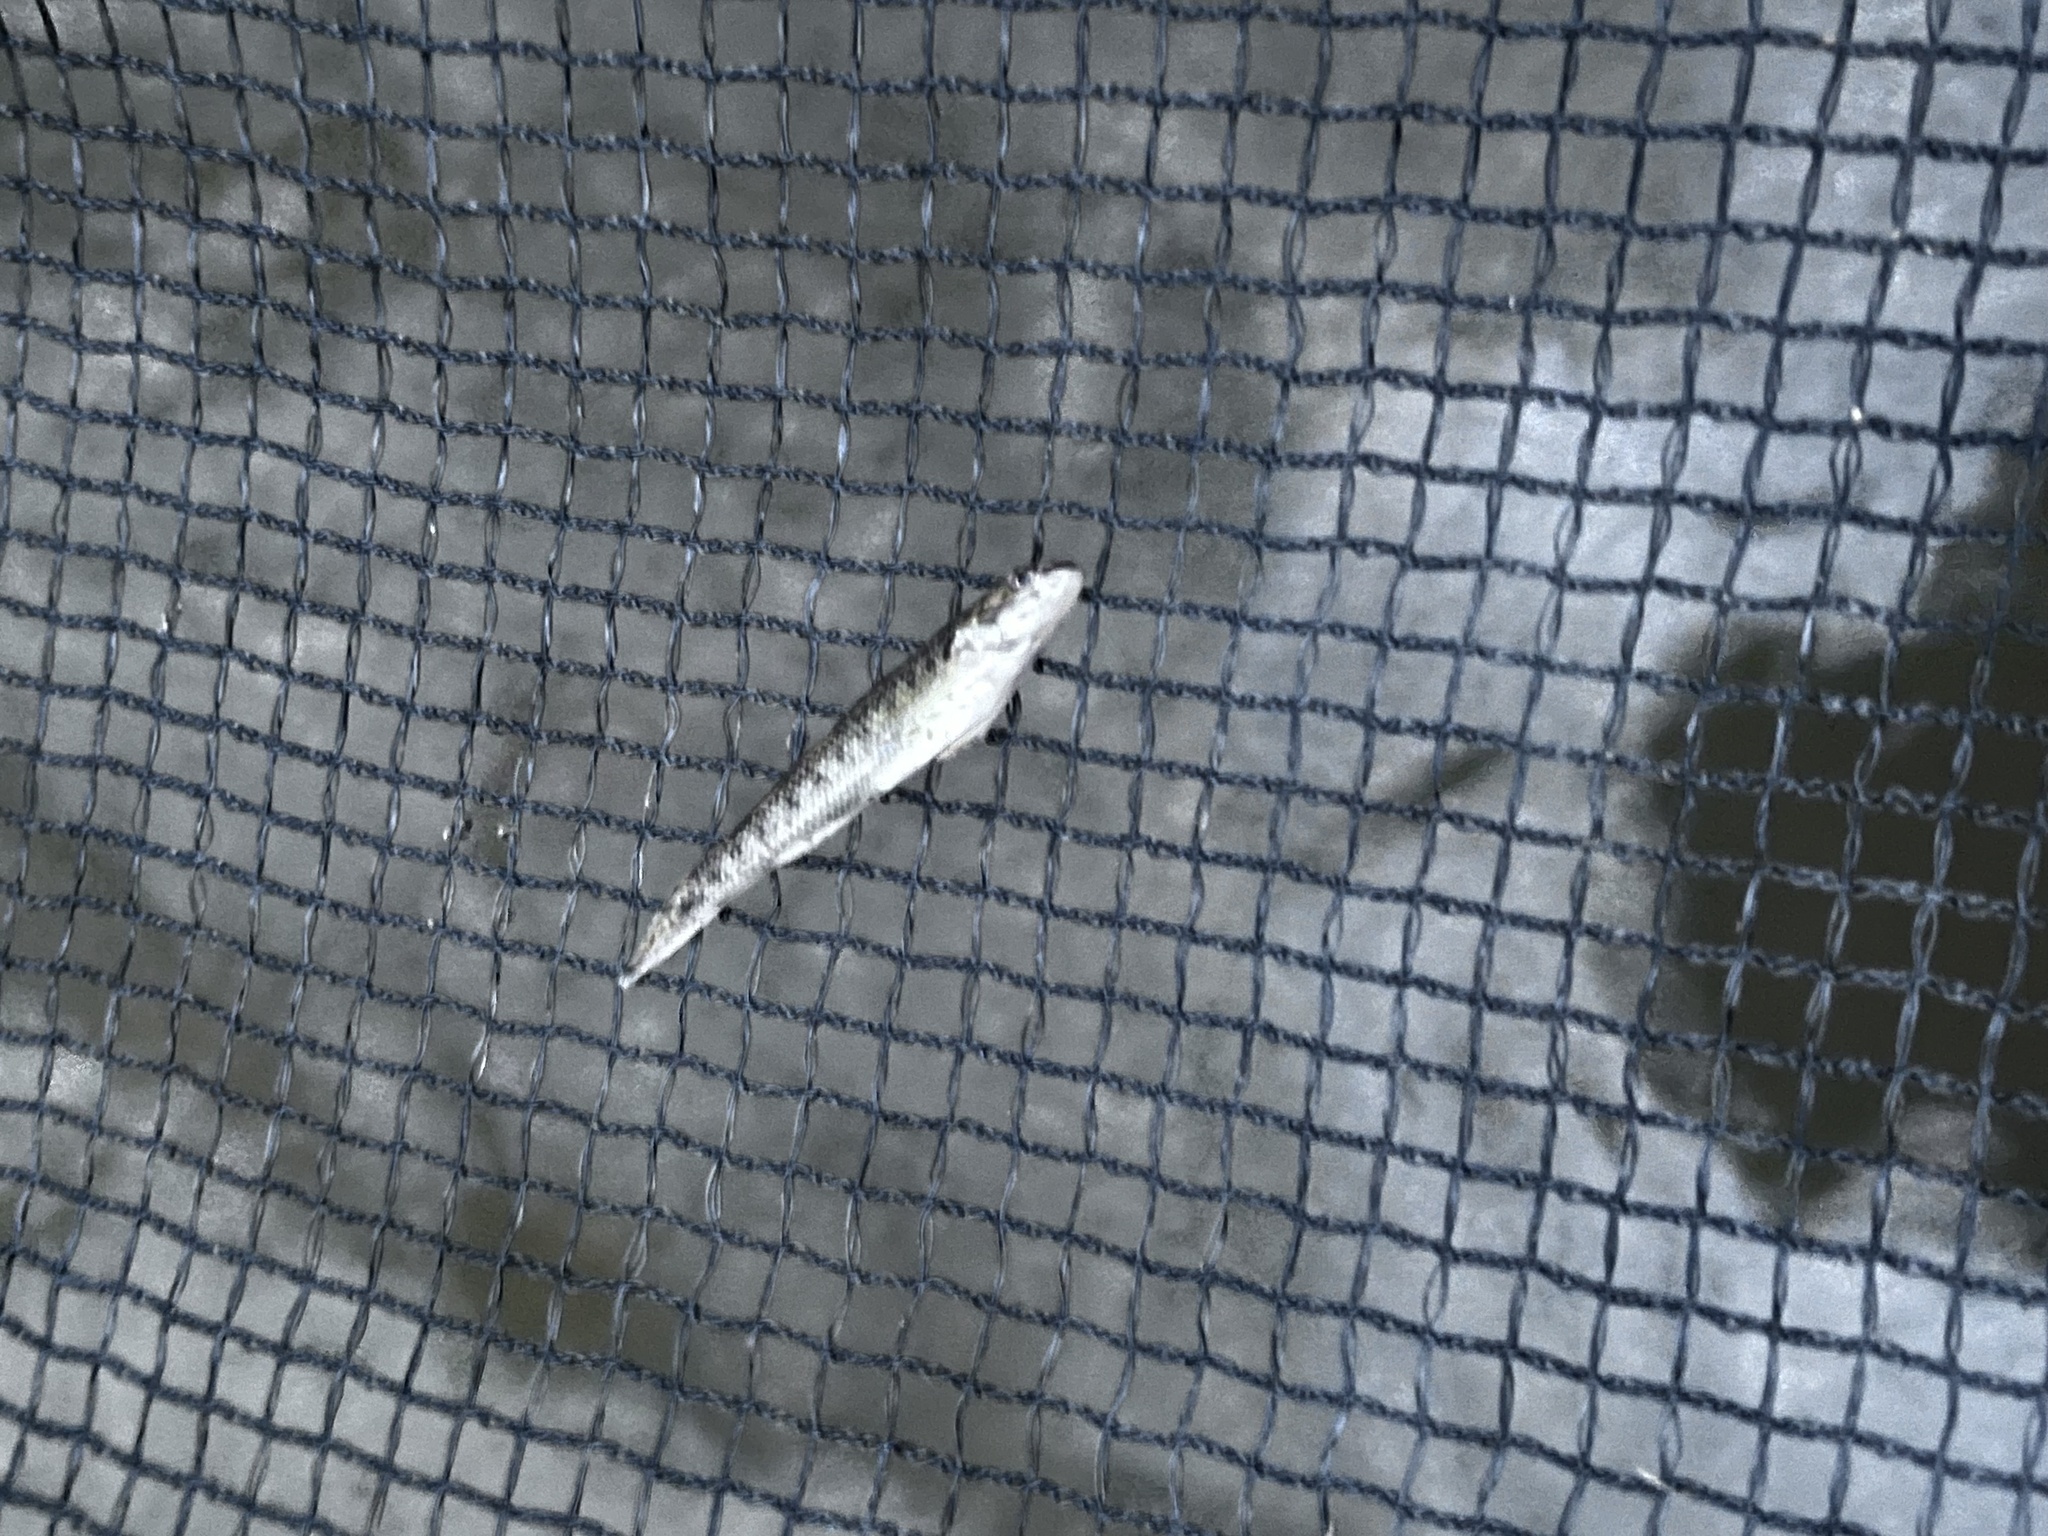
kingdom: Animalia
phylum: Chordata
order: Perciformes
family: Percidae
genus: Etheostoma
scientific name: Etheostoma nigrum
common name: Johnny darter
